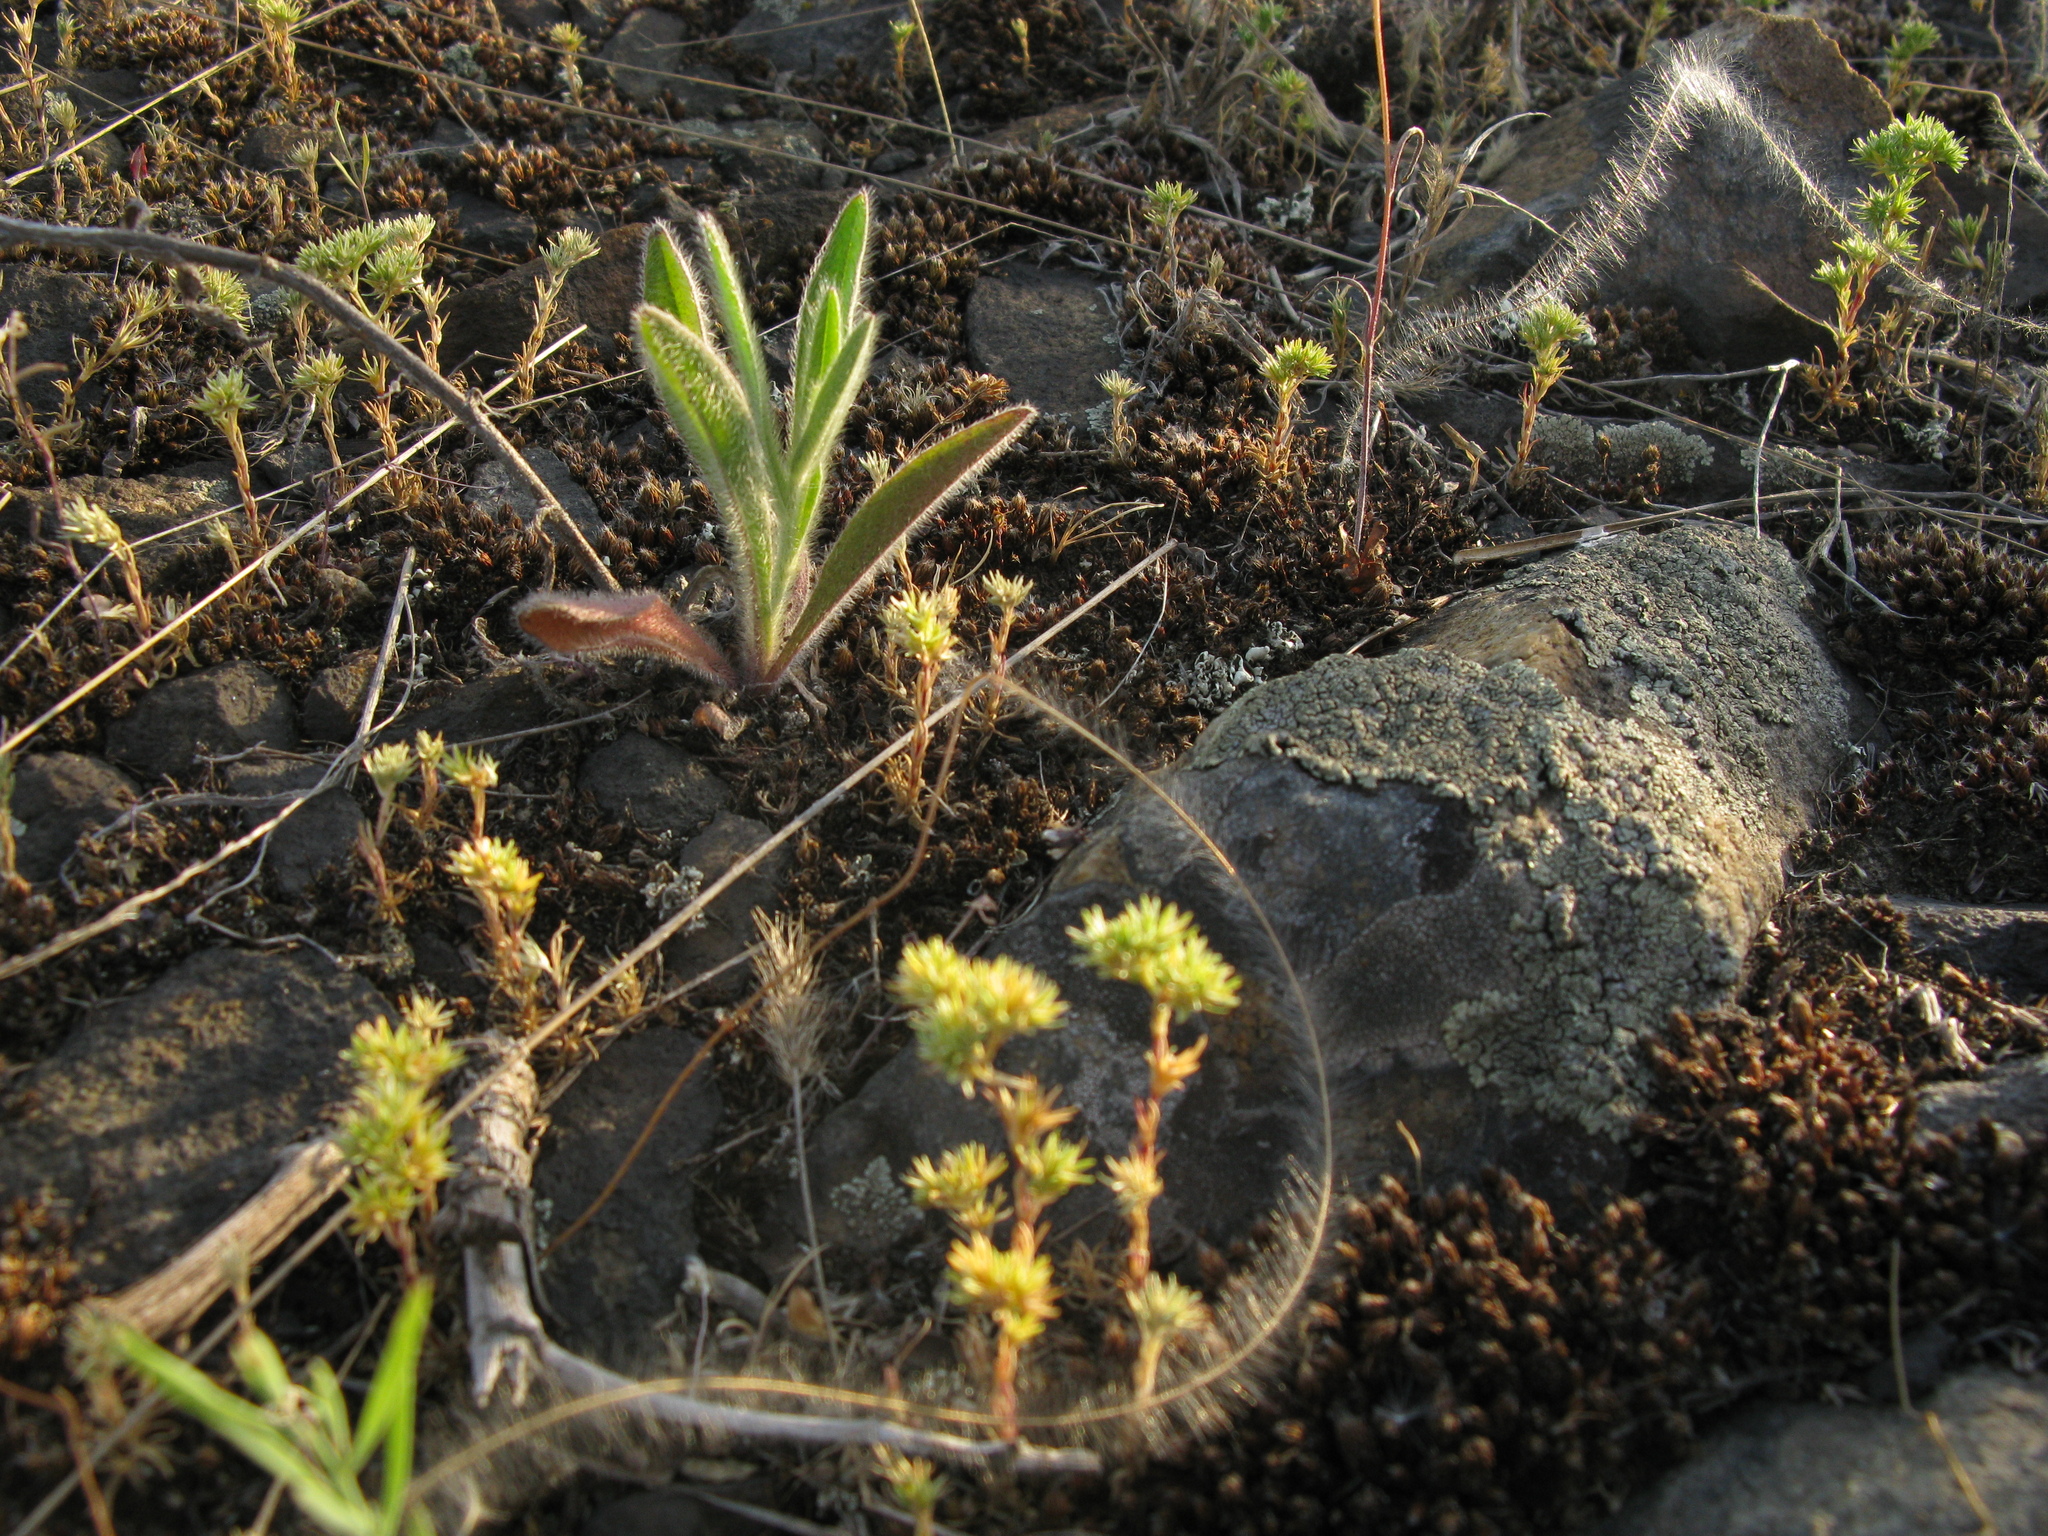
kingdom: Plantae
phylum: Tracheophyta
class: Magnoliopsida
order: Caryophyllales
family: Caryophyllaceae
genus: Scleranthus
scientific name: Scleranthus annuus
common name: Annual knawel
